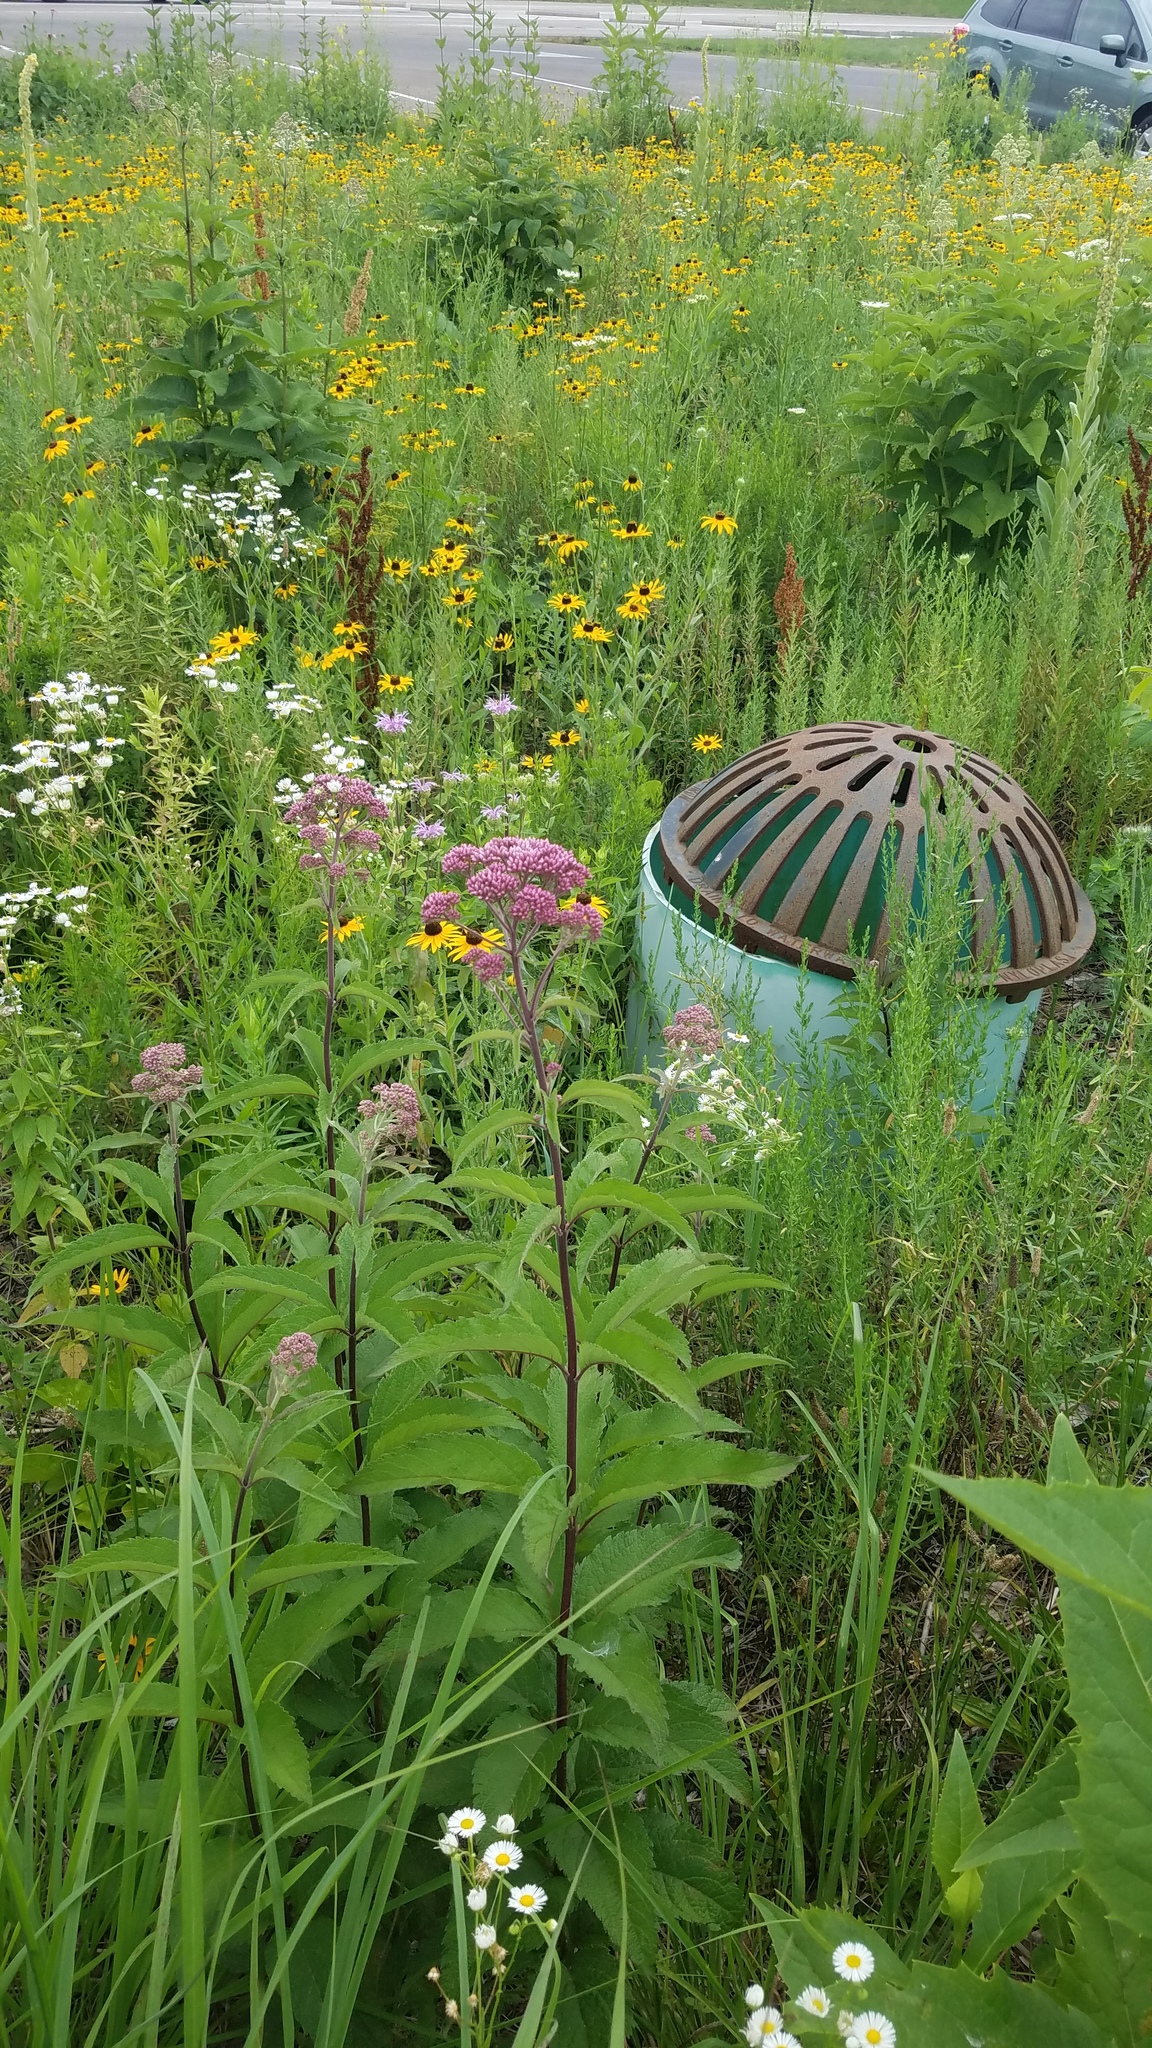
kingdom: Plantae
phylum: Tracheophyta
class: Magnoliopsida
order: Asterales
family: Asteraceae
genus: Eutrochium
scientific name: Eutrochium maculatum
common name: Spotted joe pye weed
